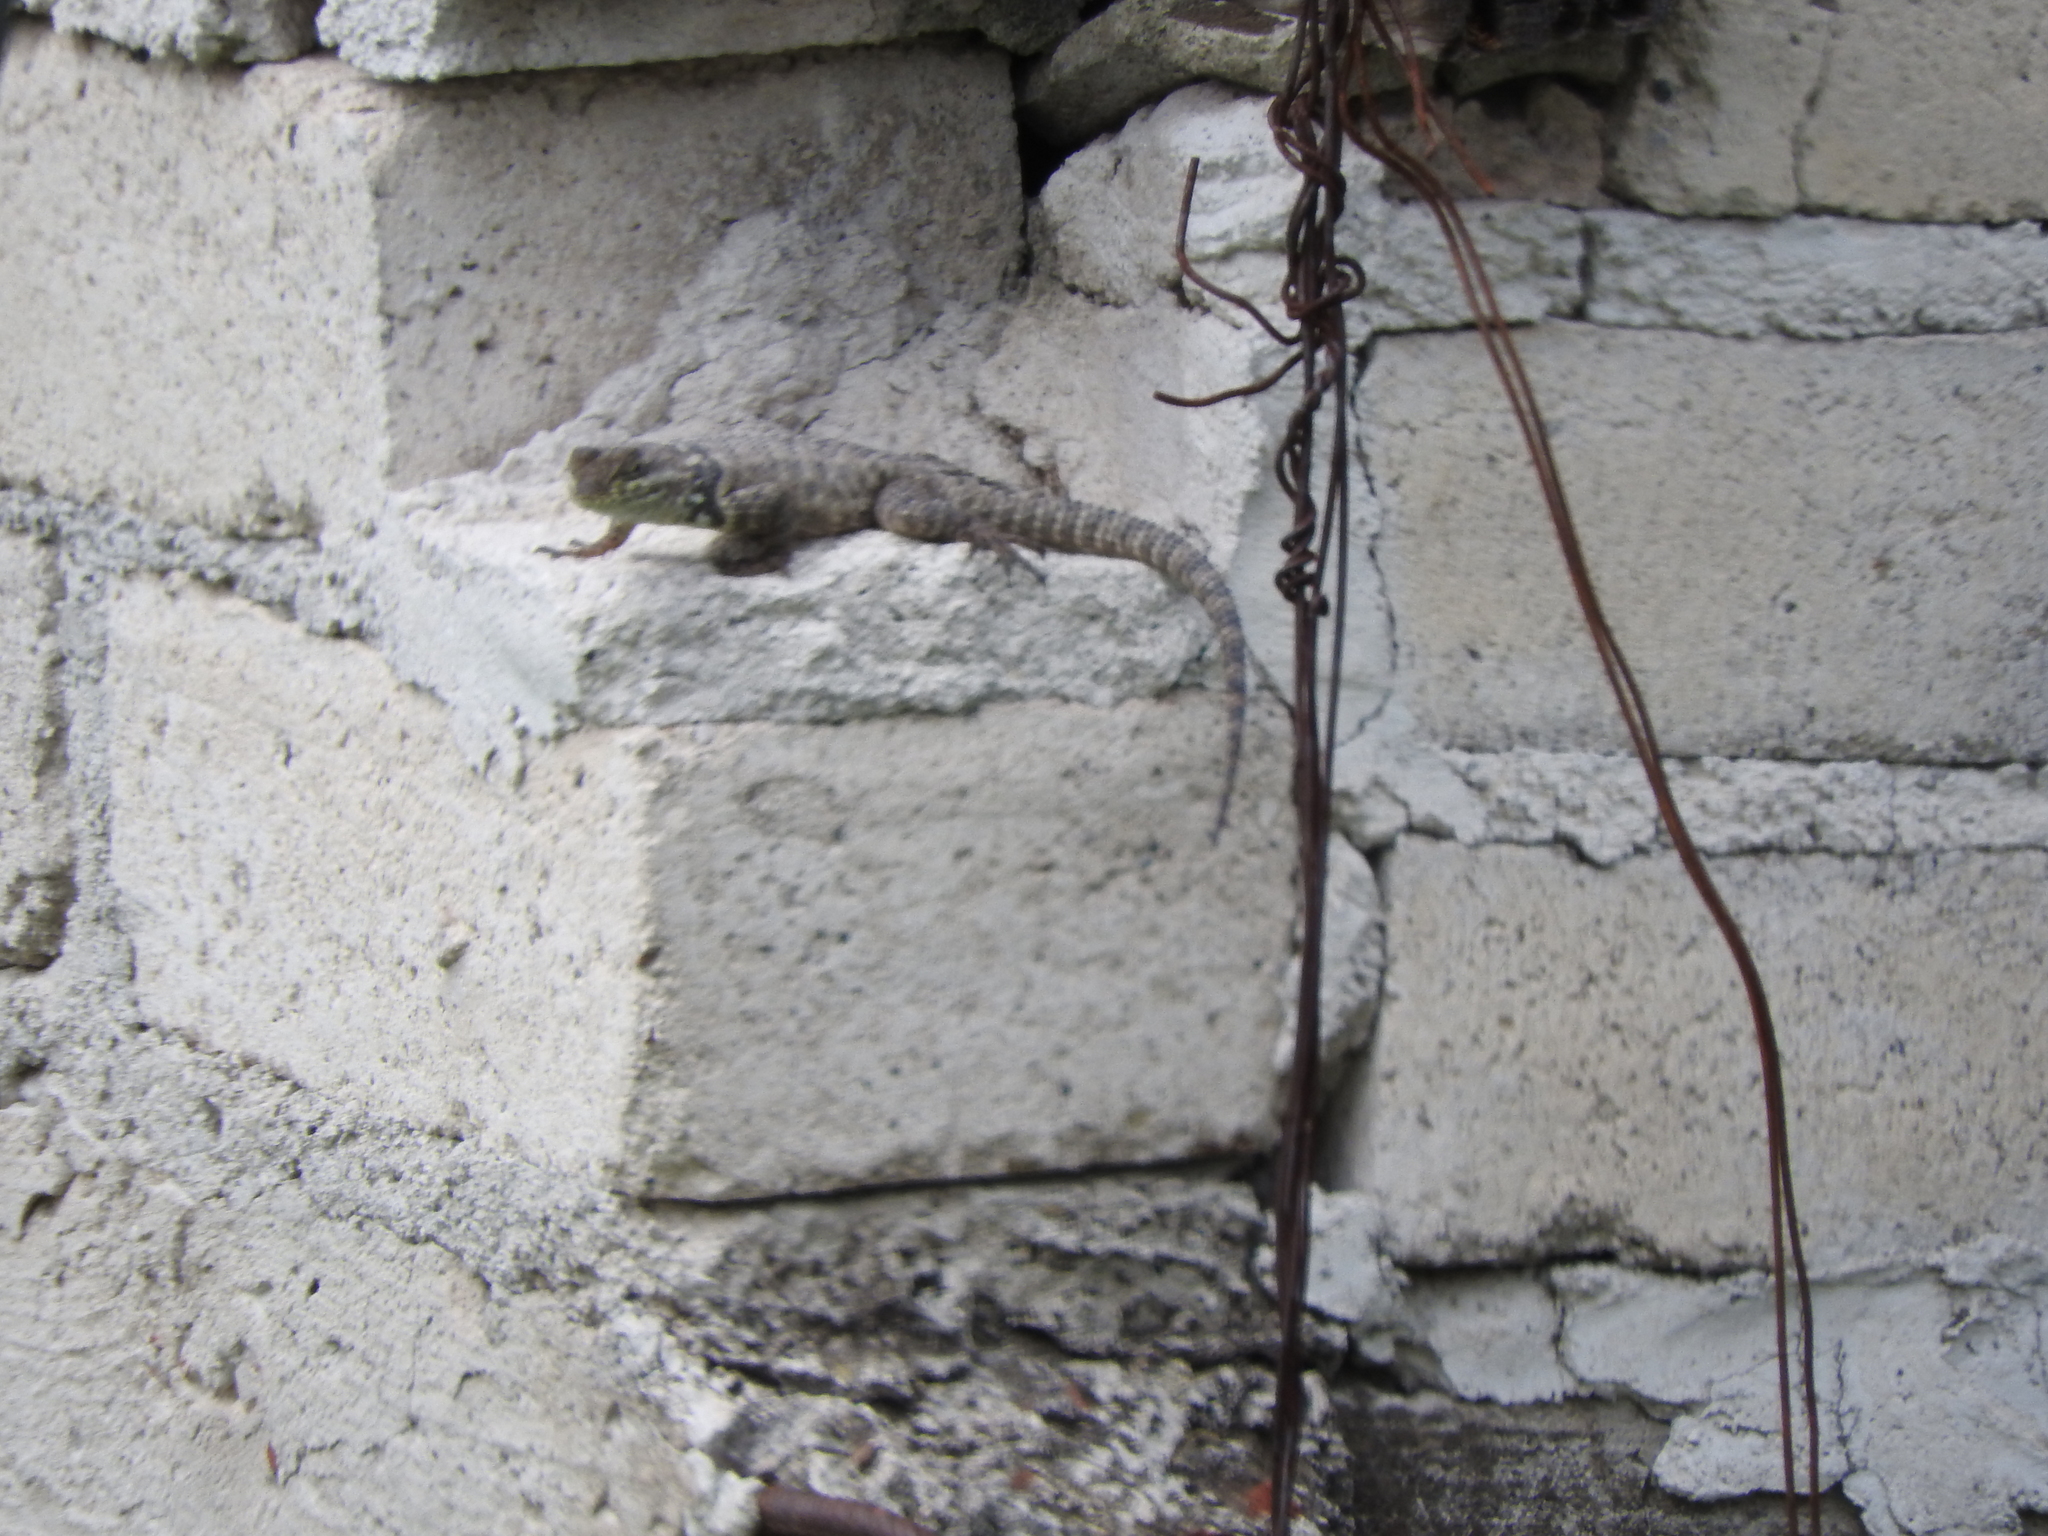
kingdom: Animalia
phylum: Chordata
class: Squamata
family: Phrynosomatidae
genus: Sceloporus
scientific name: Sceloporus torquatus
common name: Central plateau torquate lizard [melanogaster]
